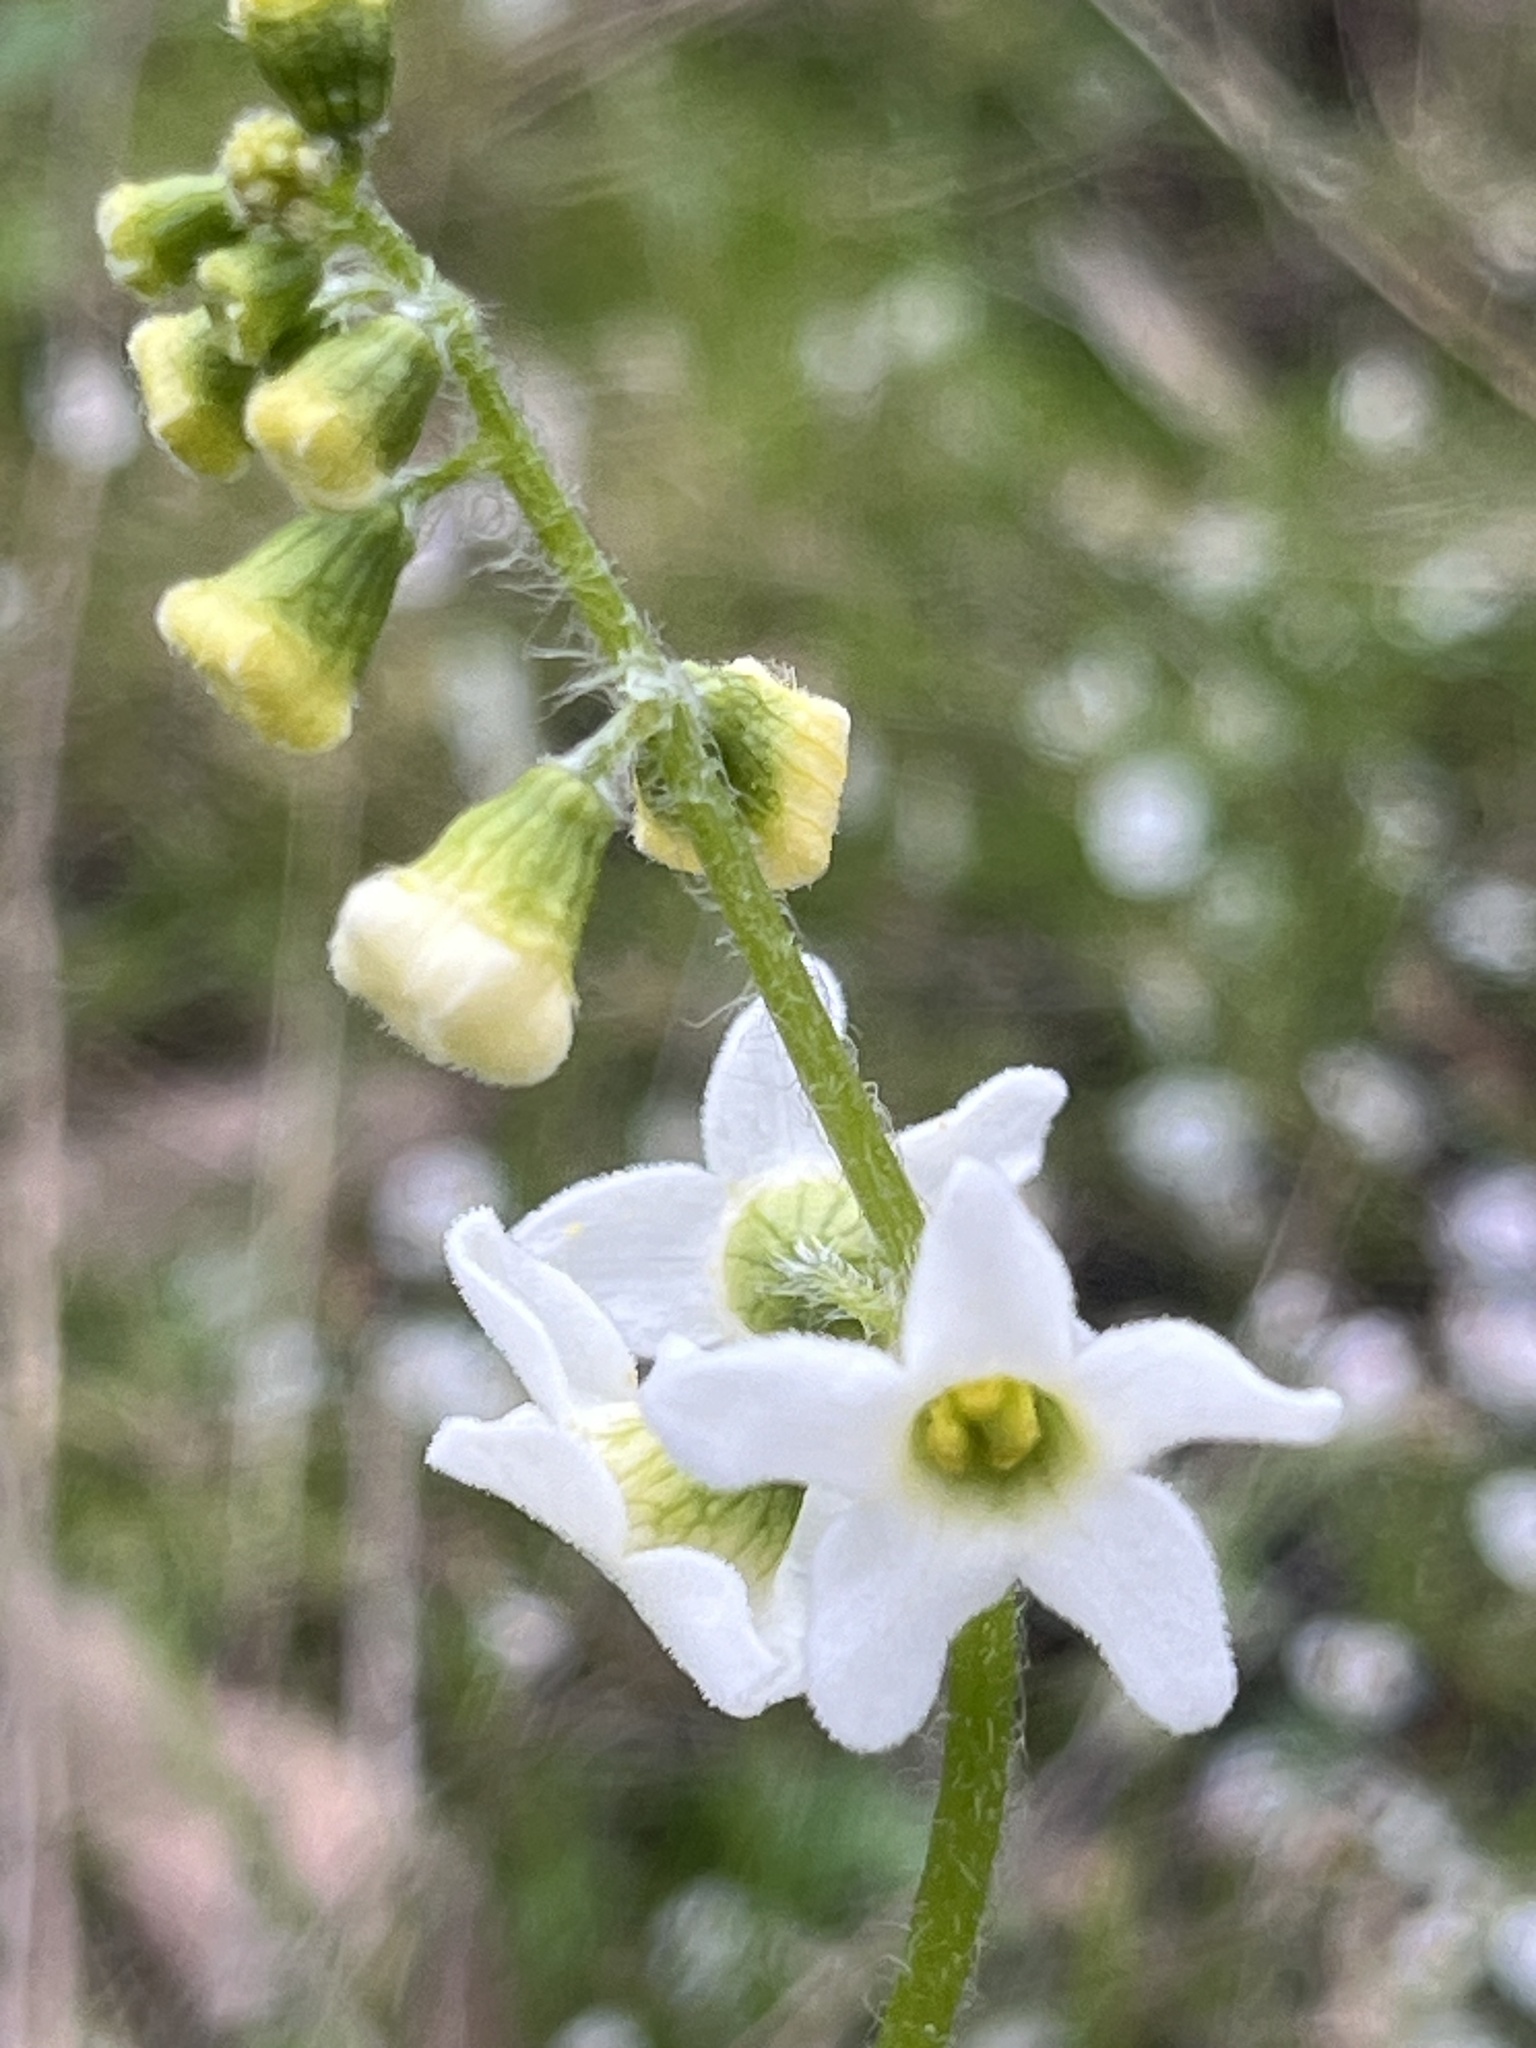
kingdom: Plantae
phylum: Tracheophyta
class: Magnoliopsida
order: Cucurbitales
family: Cucurbitaceae
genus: Marah
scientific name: Marah oregana
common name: Coastal manroot
